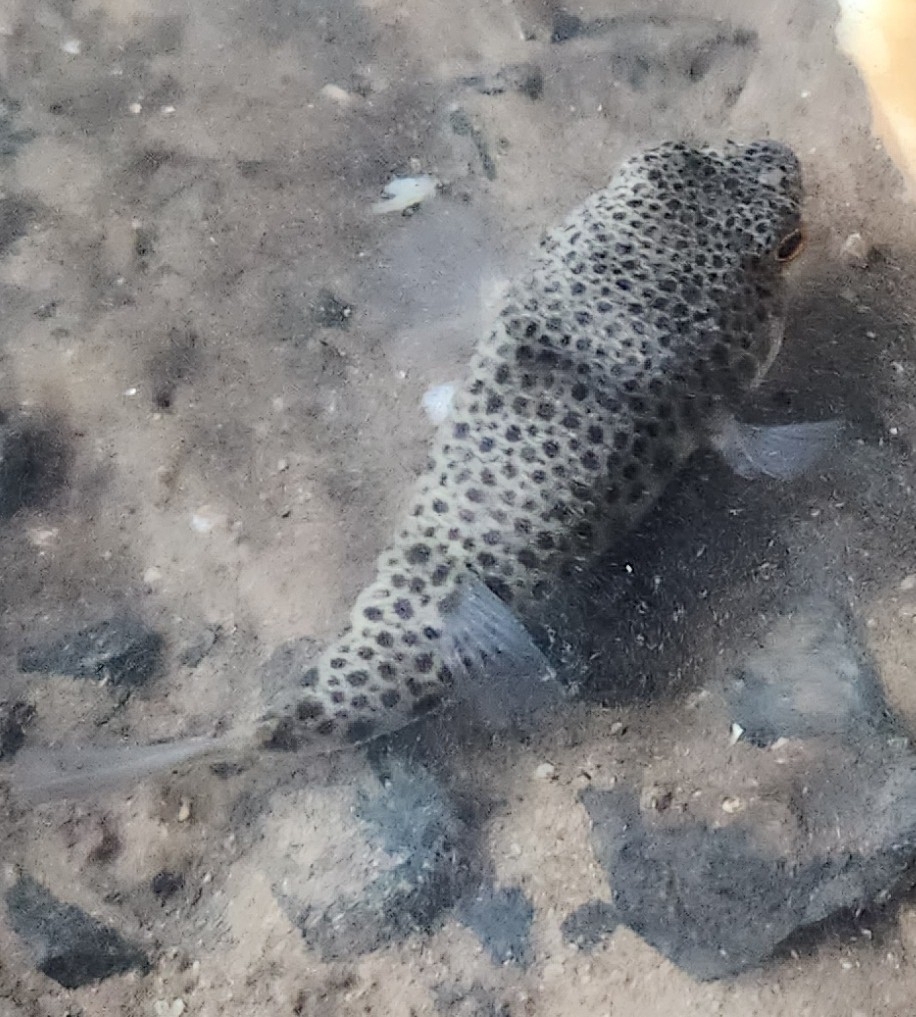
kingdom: Animalia
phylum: Chordata
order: Tetraodontiformes
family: Tetraodontidae
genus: Tetractenos
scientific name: Tetractenos hamiltoni
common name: Common toadfish
